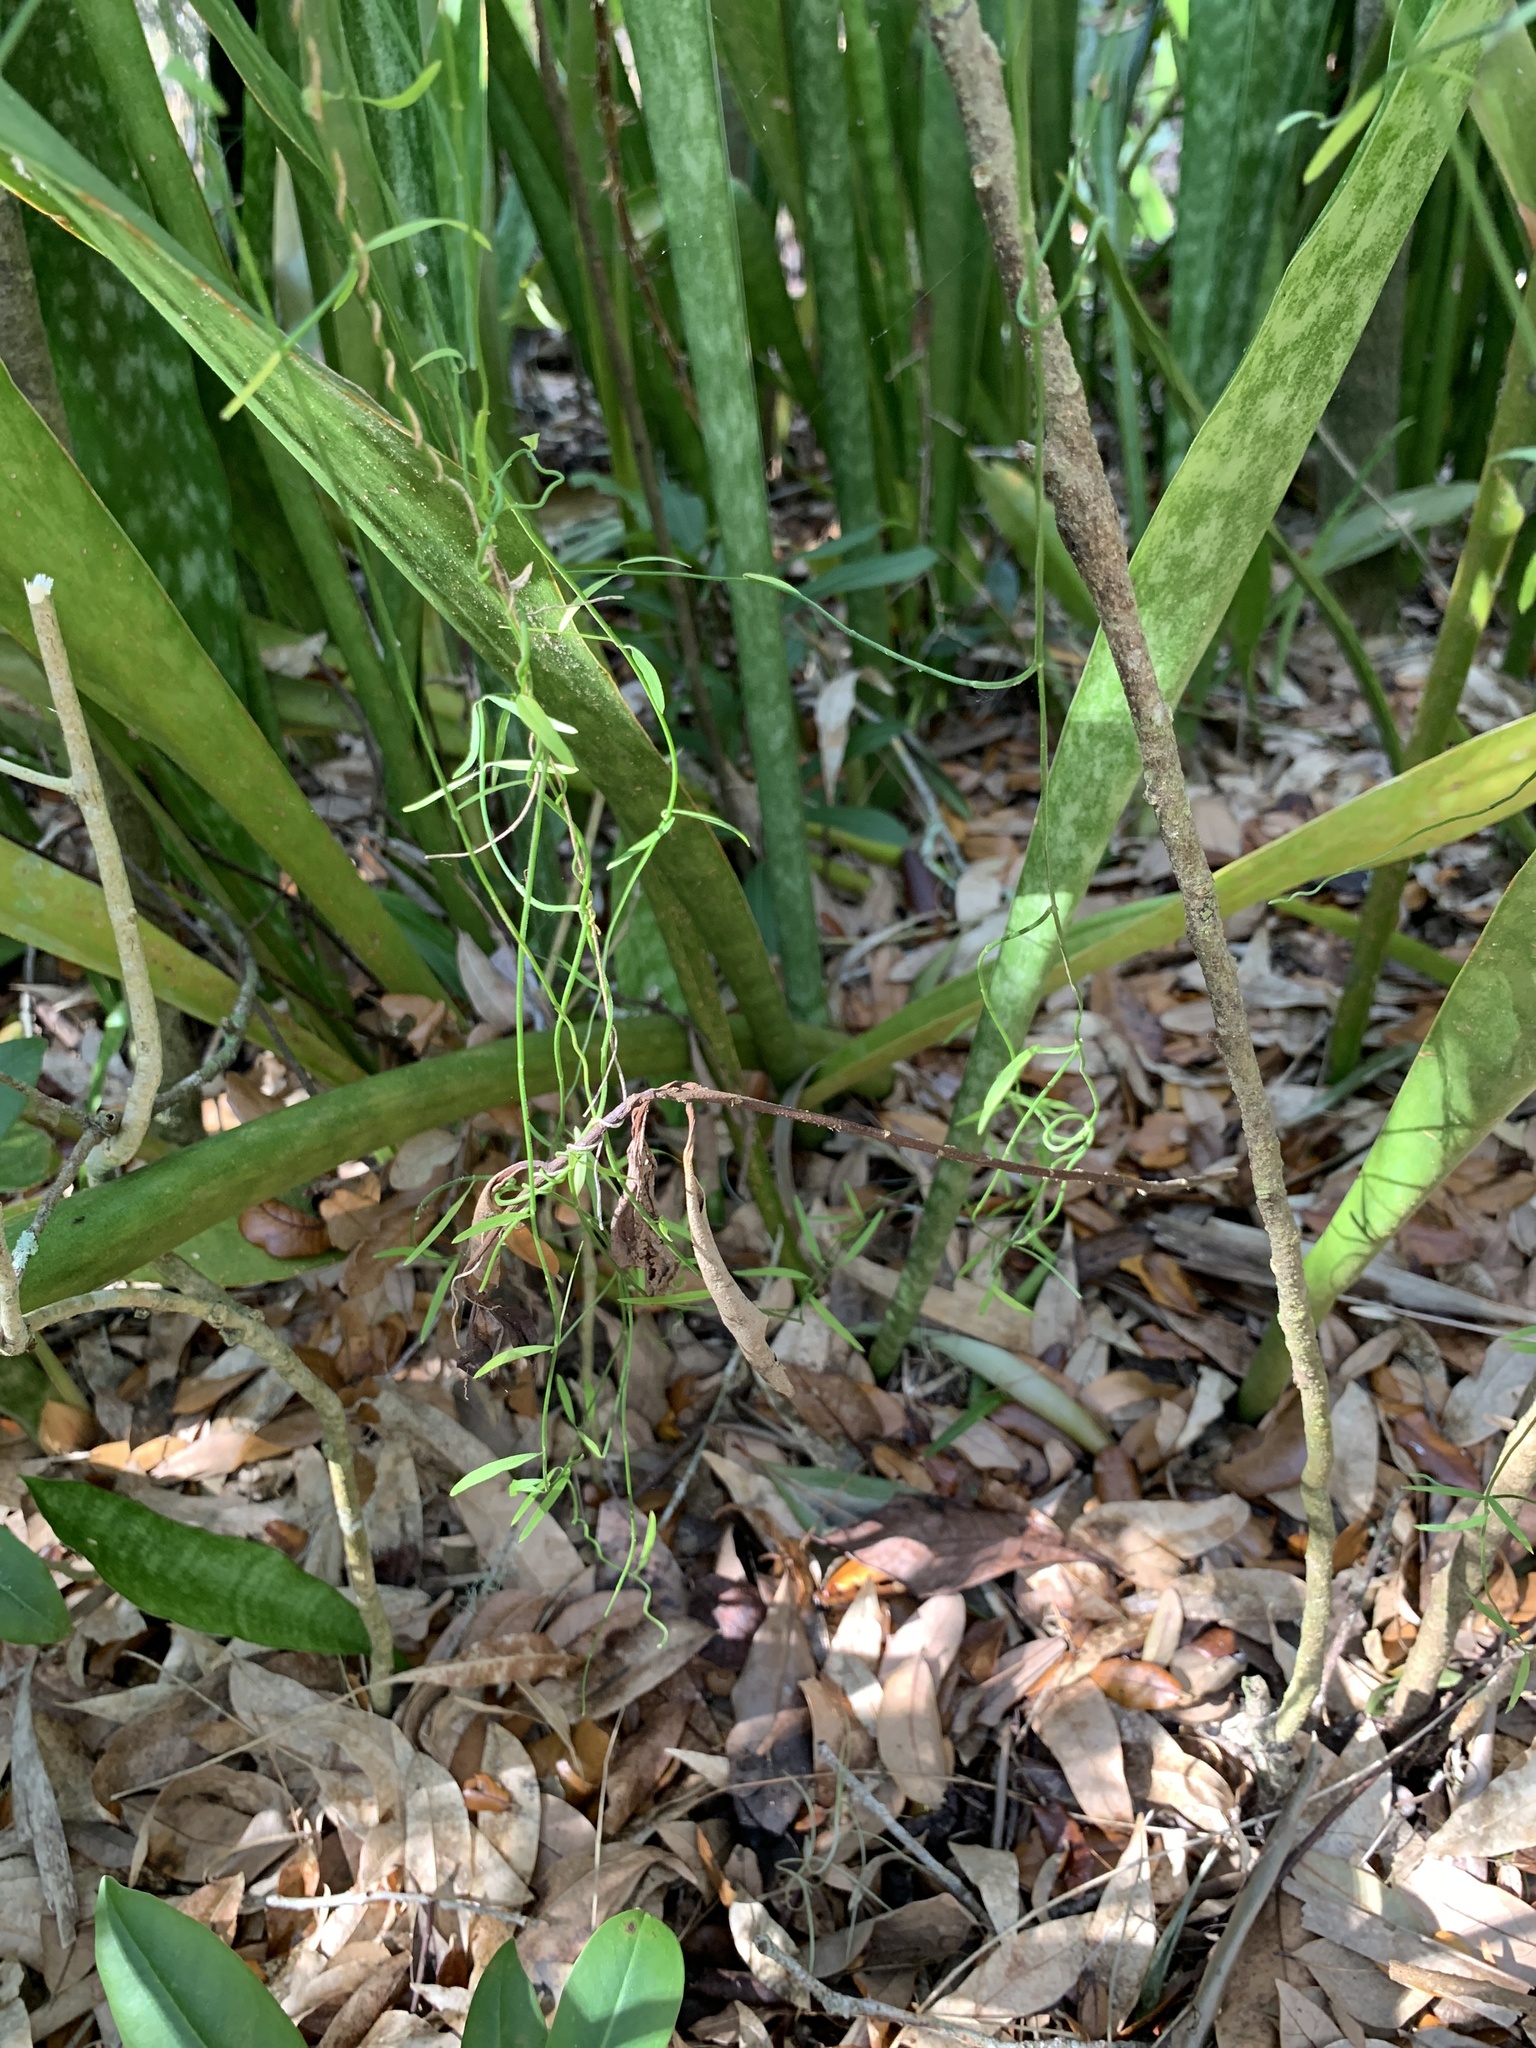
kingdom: Plantae
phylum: Tracheophyta
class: Liliopsida
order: Asparagales
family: Asparagaceae
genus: Dracaena
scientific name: Dracaena hyacinthoides
